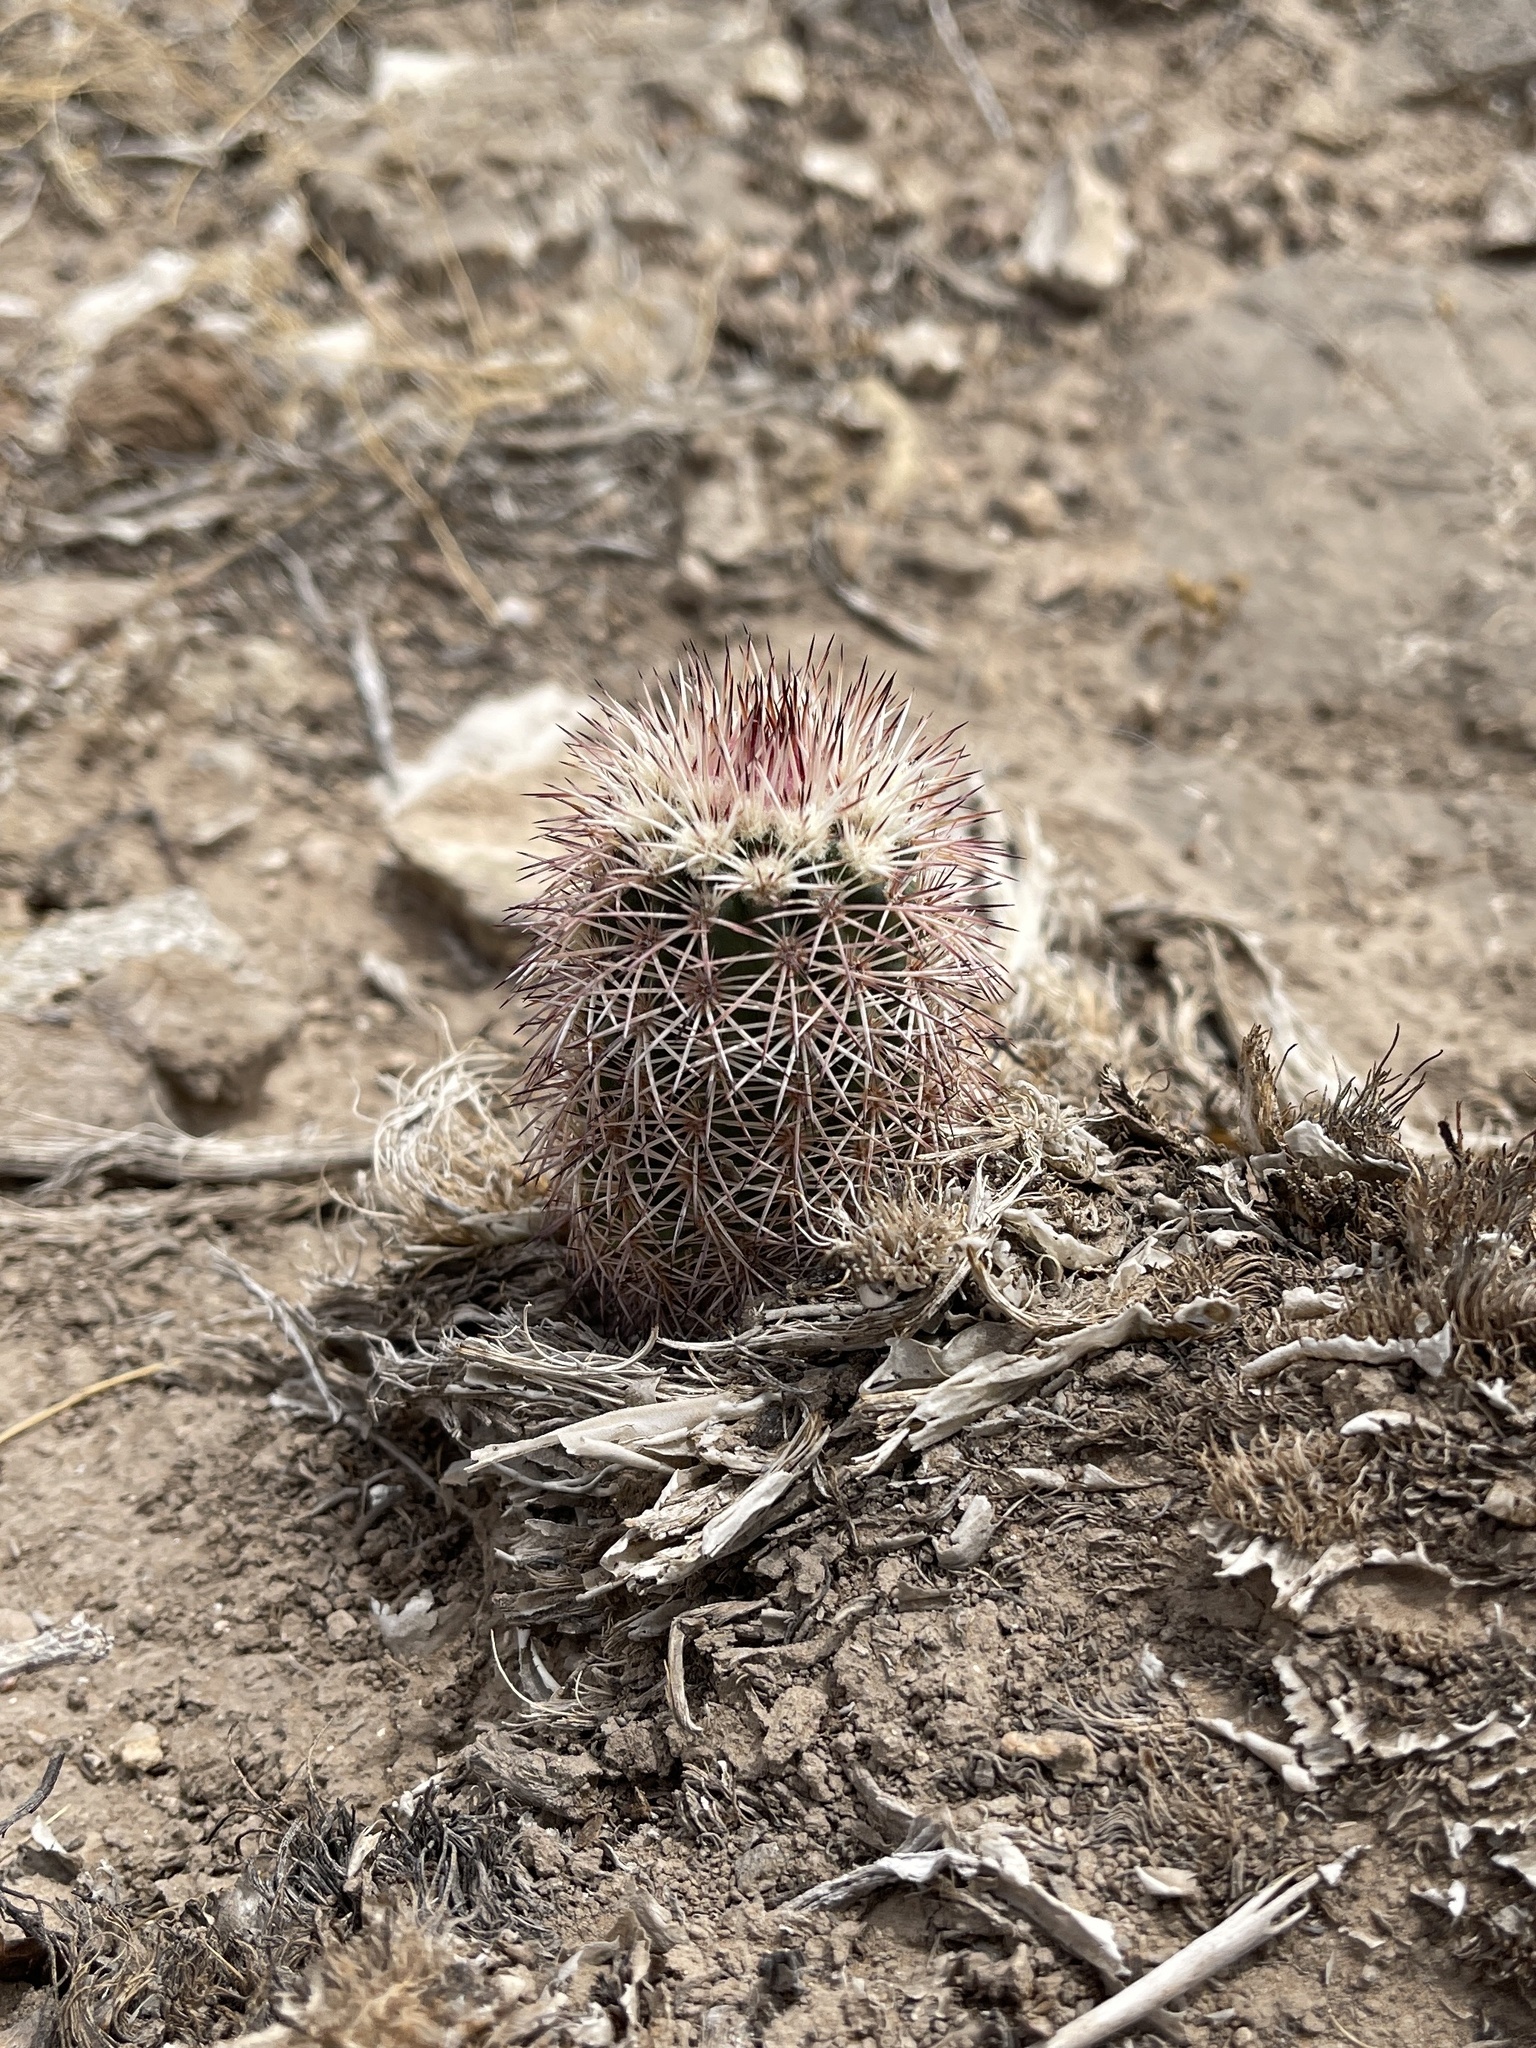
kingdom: Plantae
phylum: Tracheophyta
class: Magnoliopsida
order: Caryophyllales
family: Cactaceae
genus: Echinocereus
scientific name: Echinocereus dasyacanthus
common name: Spiny hedgehog cactus
